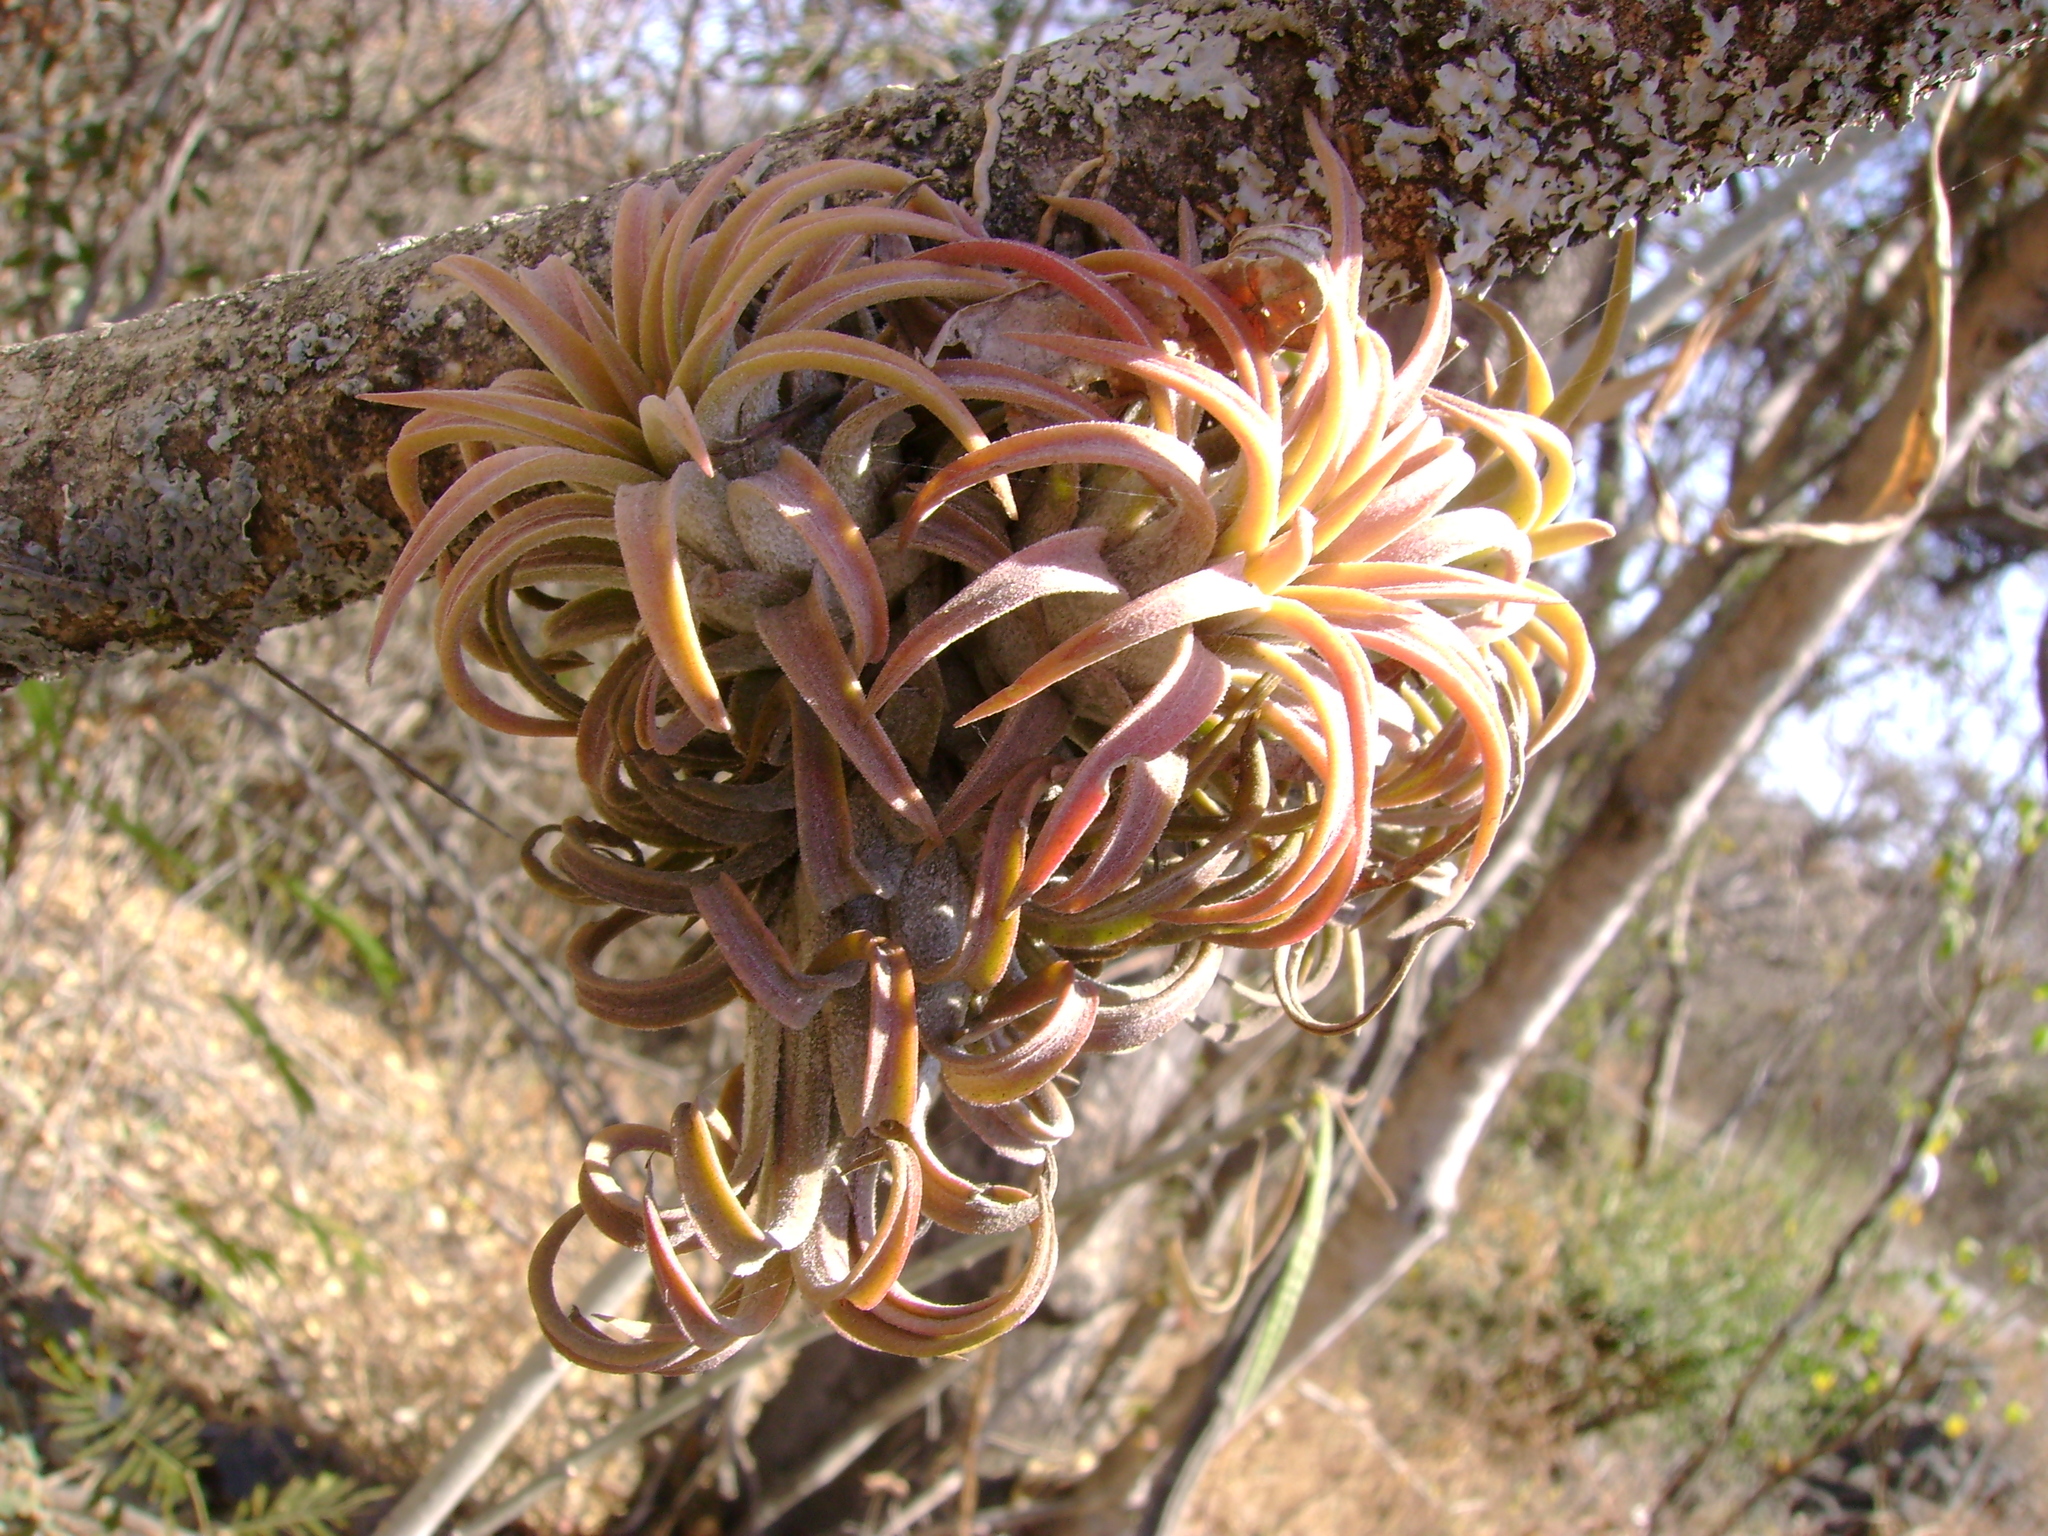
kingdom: Plantae
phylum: Tracheophyta
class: Liliopsida
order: Poales
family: Bromeliaceae
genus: Tillandsia
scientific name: Tillandsia ionantha
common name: Sky plant
